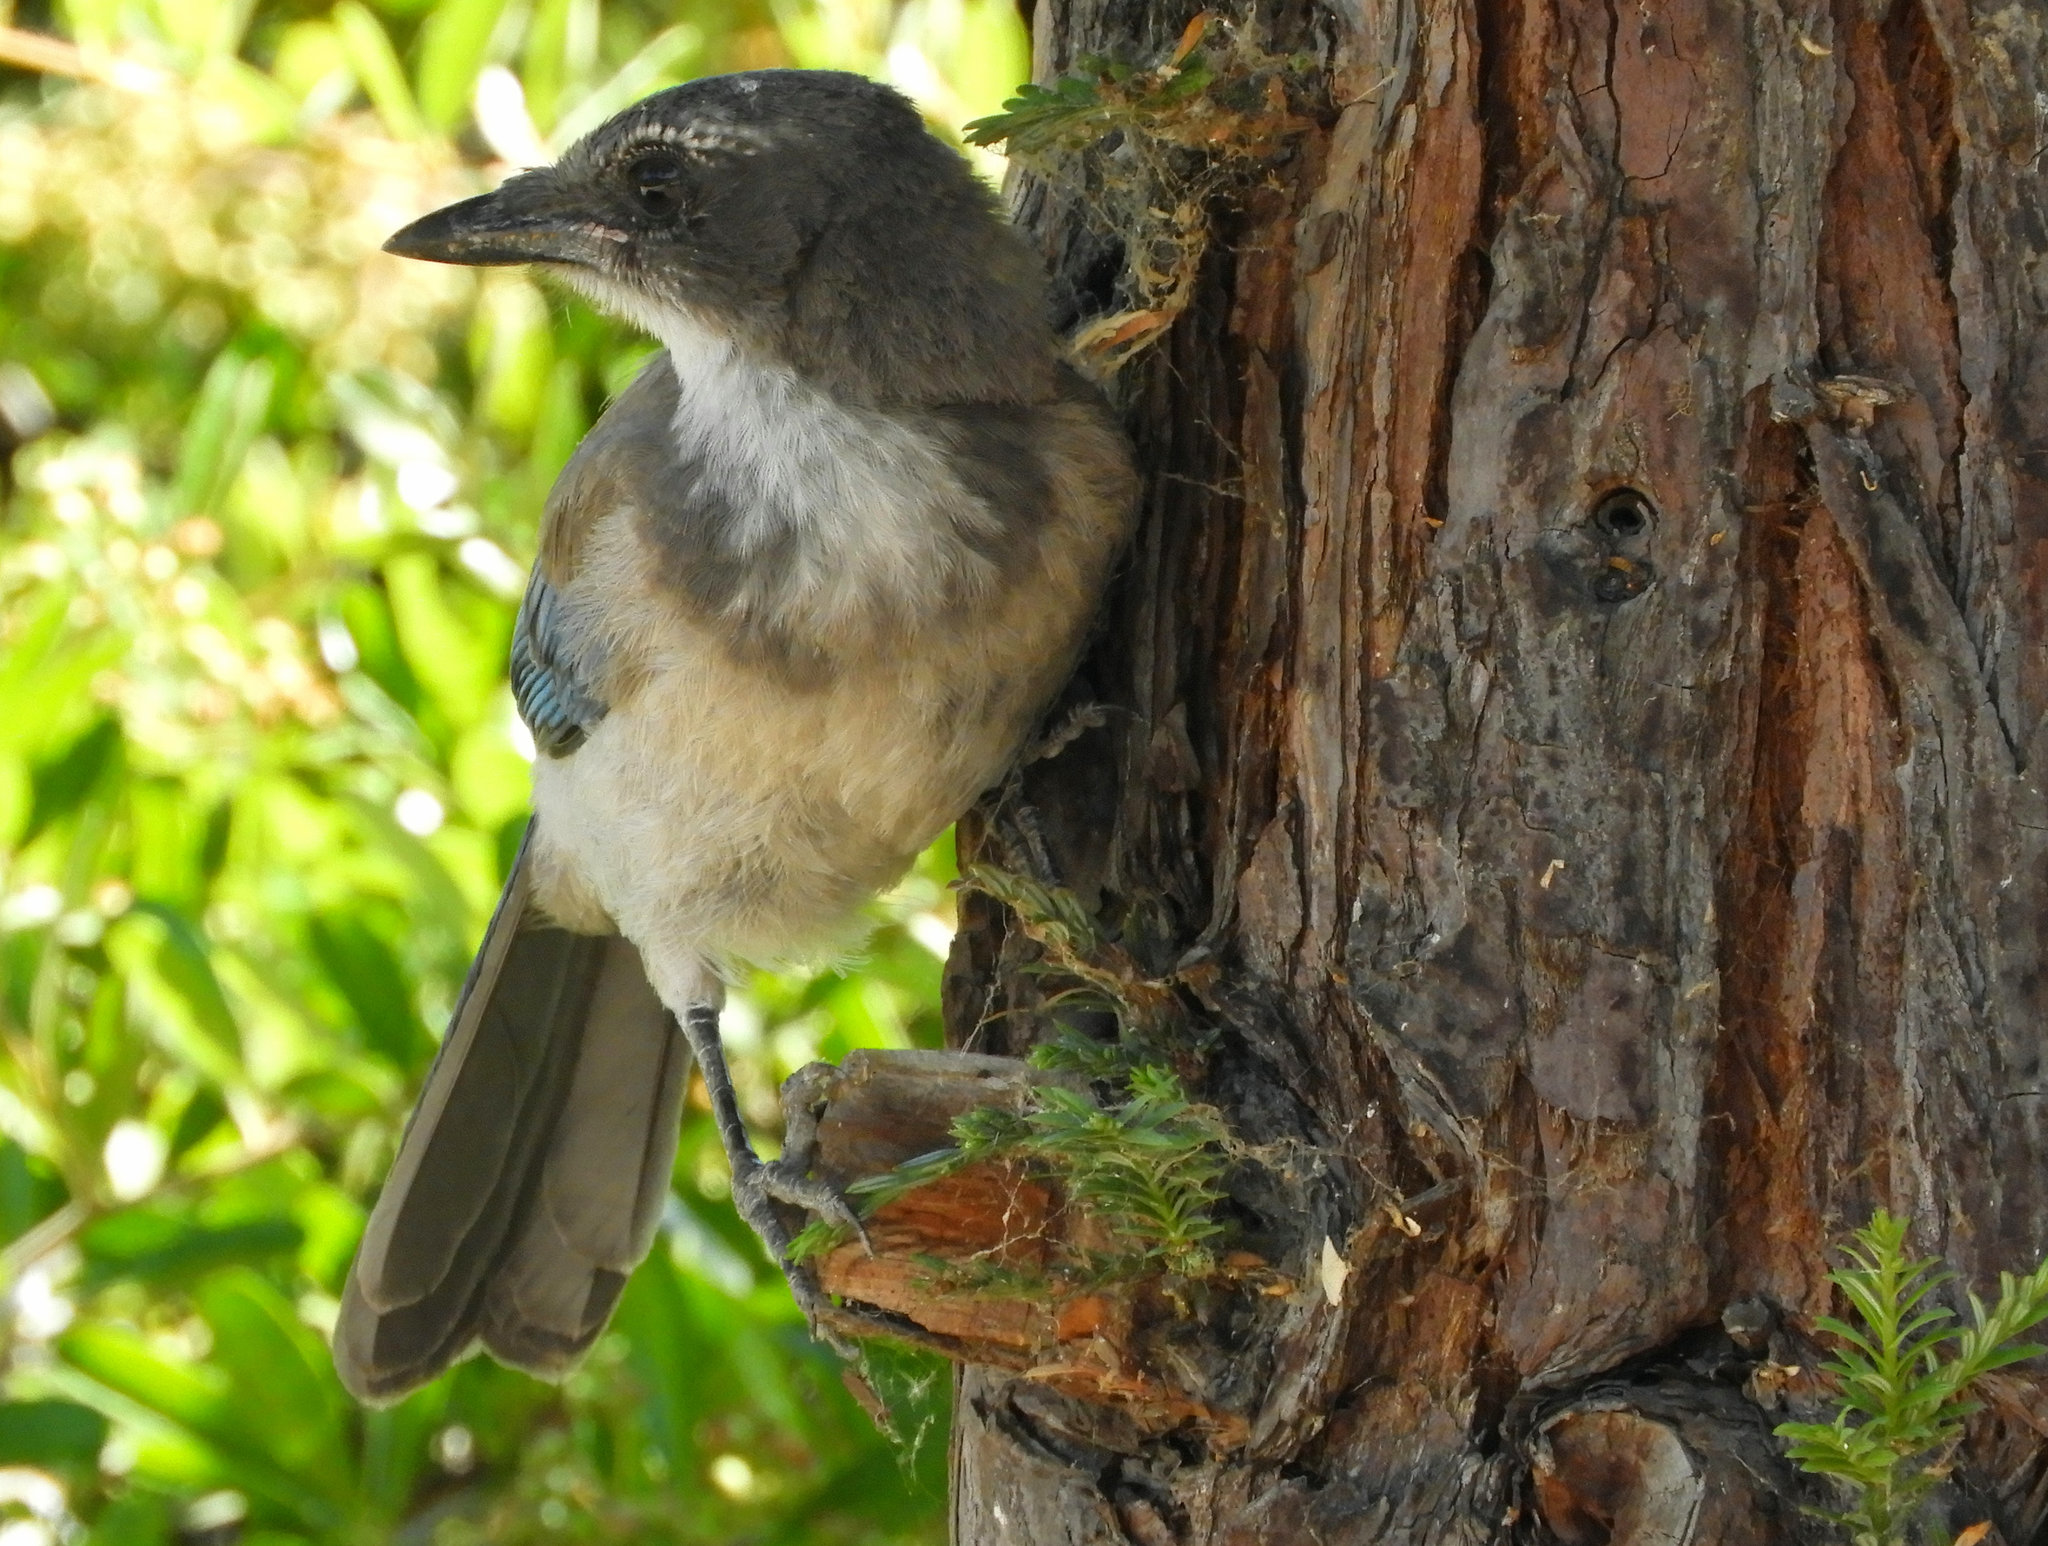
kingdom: Animalia
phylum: Chordata
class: Aves
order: Passeriformes
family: Corvidae
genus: Aphelocoma
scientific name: Aphelocoma californica
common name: California scrub-jay
